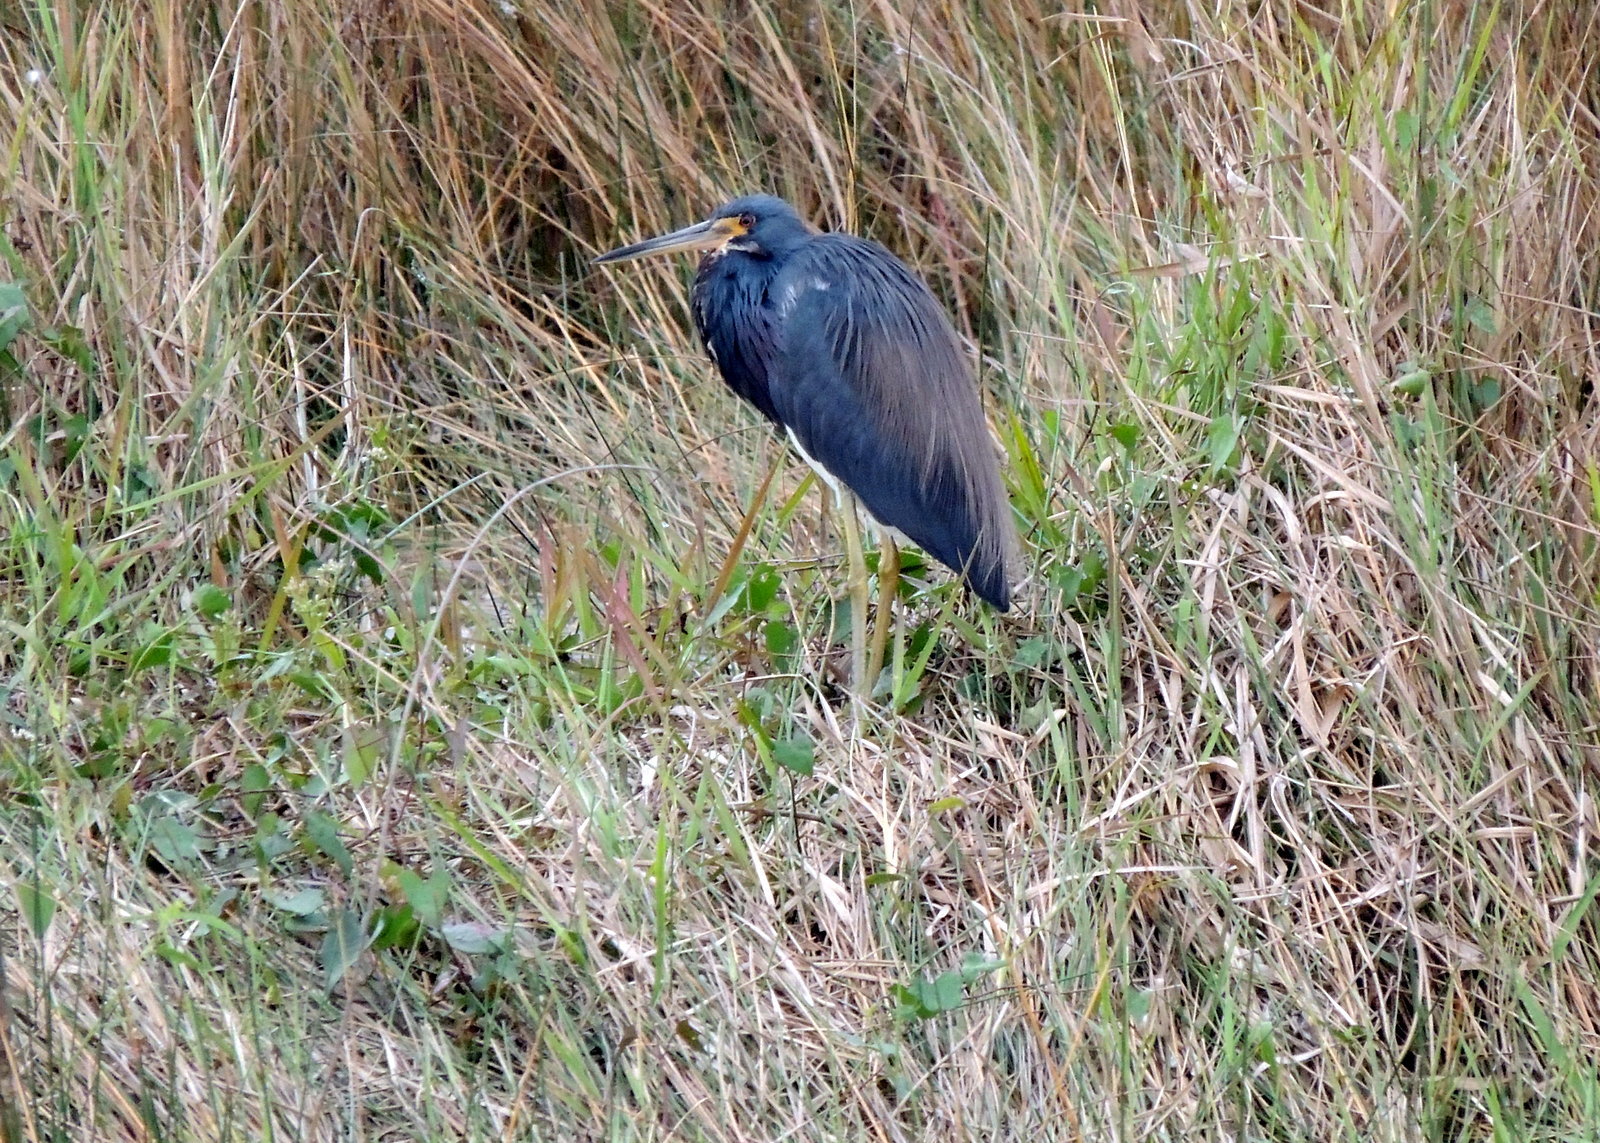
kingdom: Animalia
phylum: Chordata
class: Aves
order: Pelecaniformes
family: Ardeidae
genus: Egretta
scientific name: Egretta tricolor
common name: Tricolored heron
